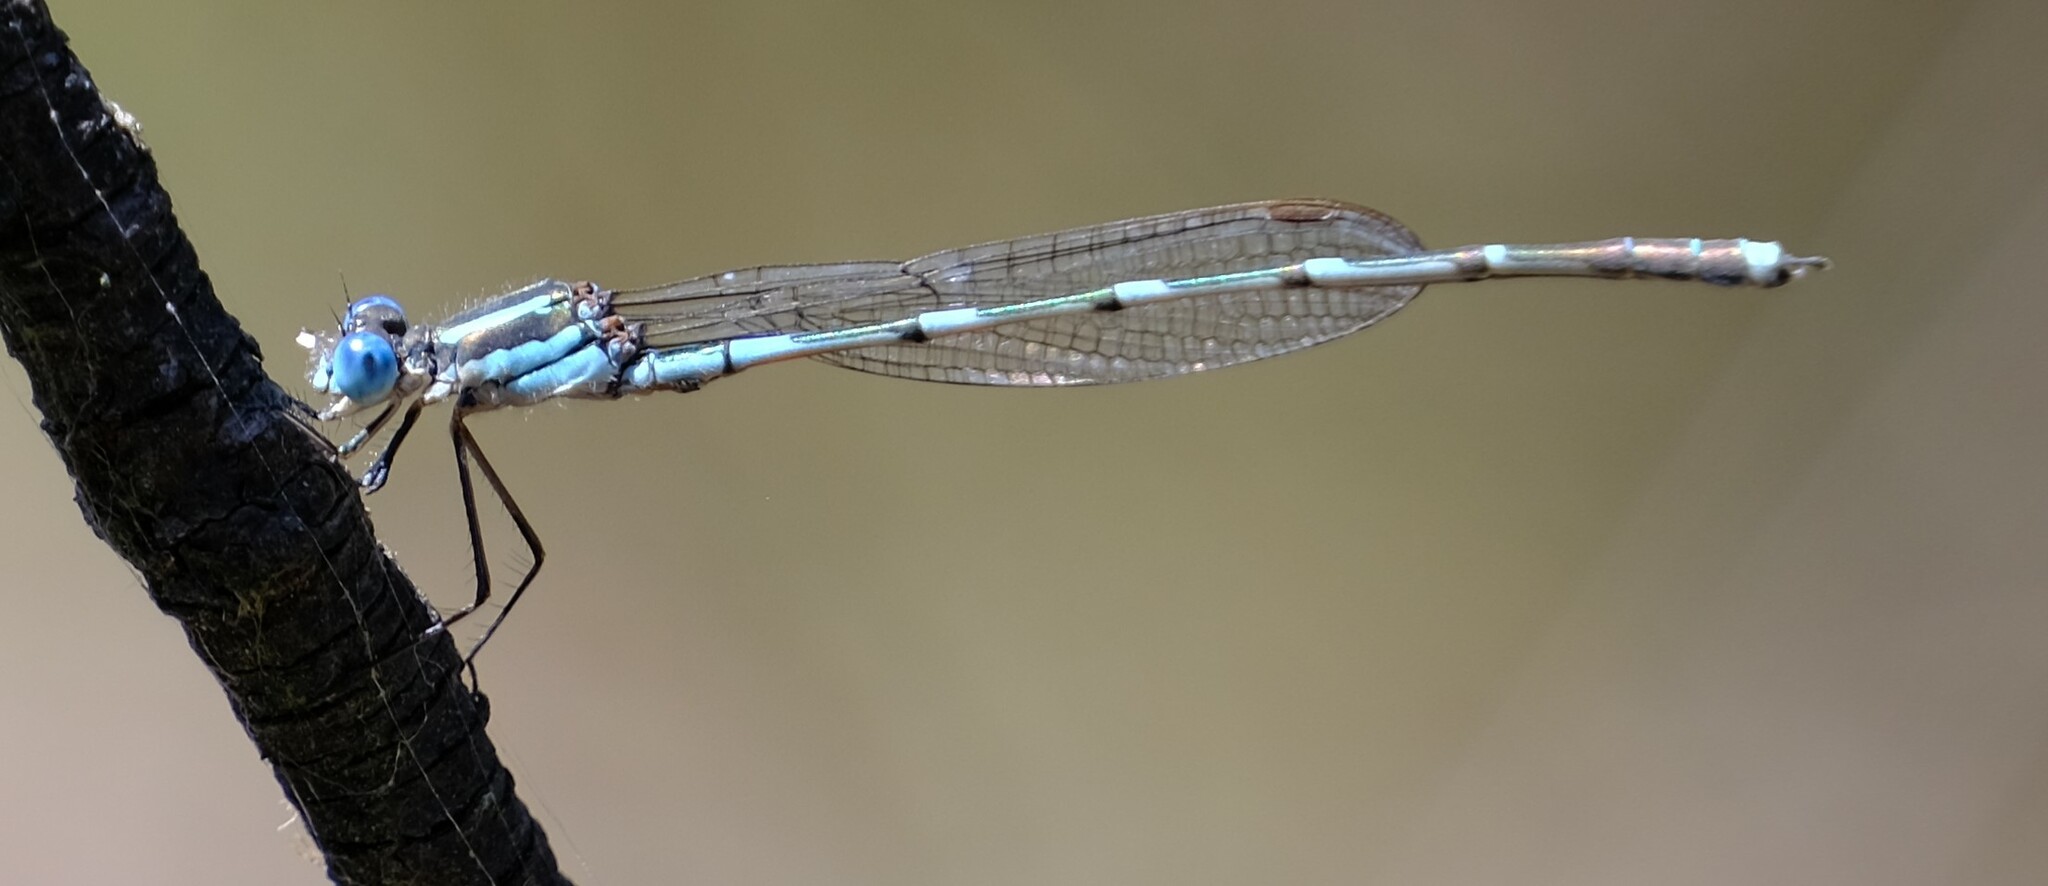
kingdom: Animalia
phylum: Arthropoda
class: Insecta
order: Odonata
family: Lestidae
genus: Austrolestes
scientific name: Austrolestes leda
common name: Wandering ringtail
